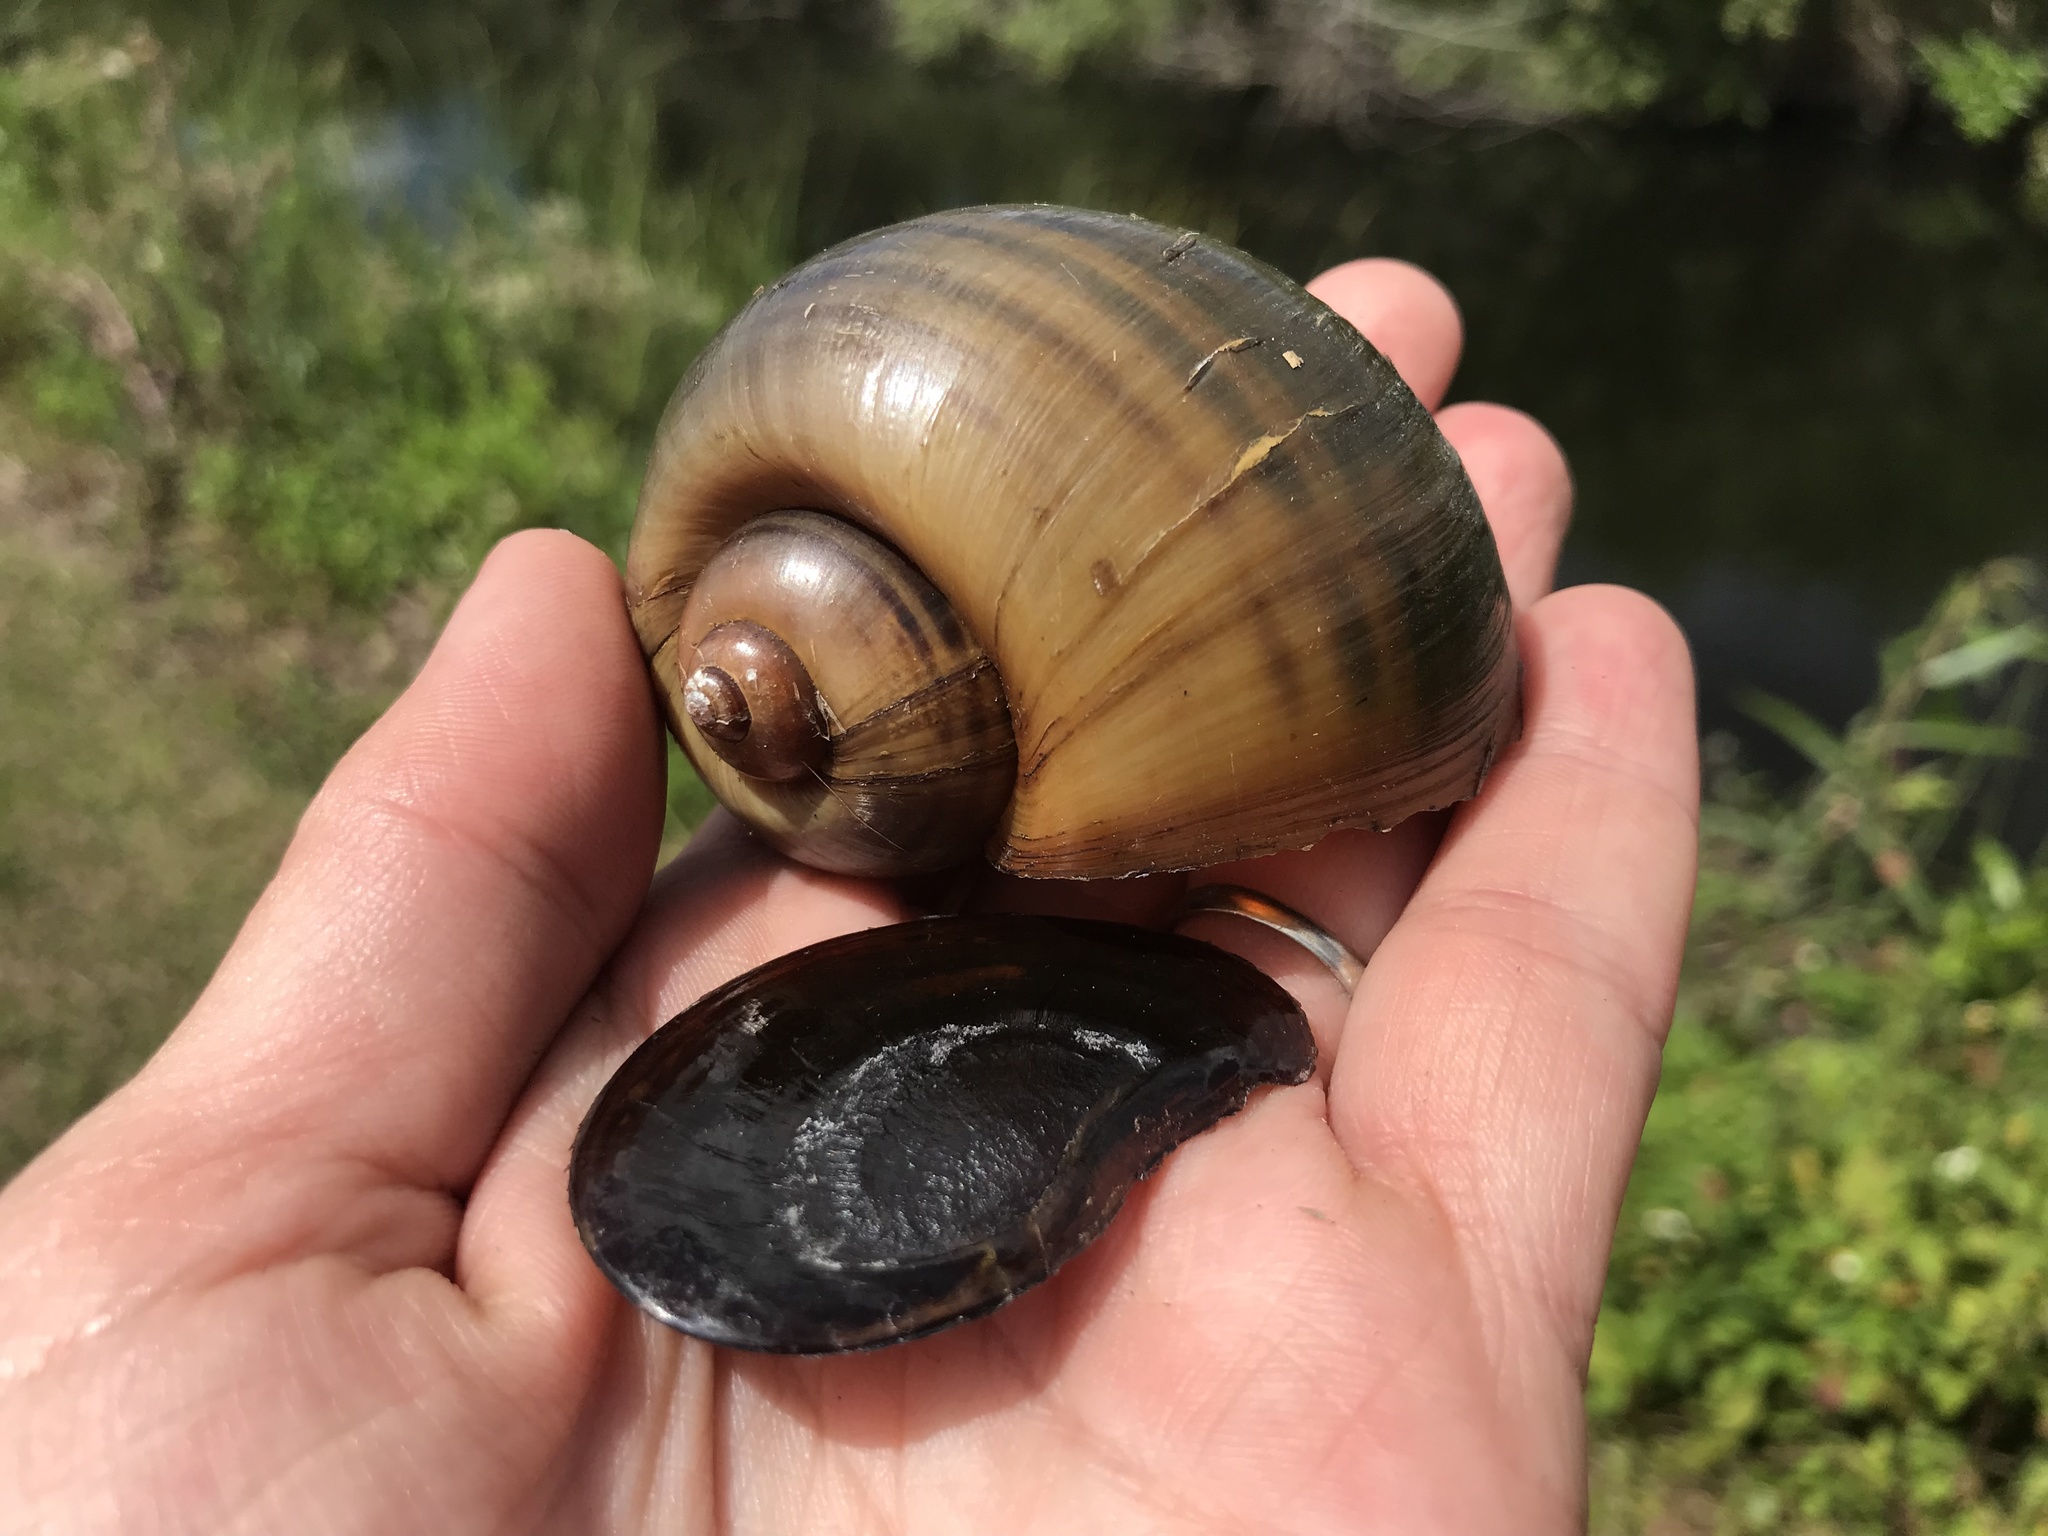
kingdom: Animalia
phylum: Mollusca
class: Gastropoda
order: Architaenioglossa
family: Ampullariidae
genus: Pomacea
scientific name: Pomacea maculata
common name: Giant applesnail
